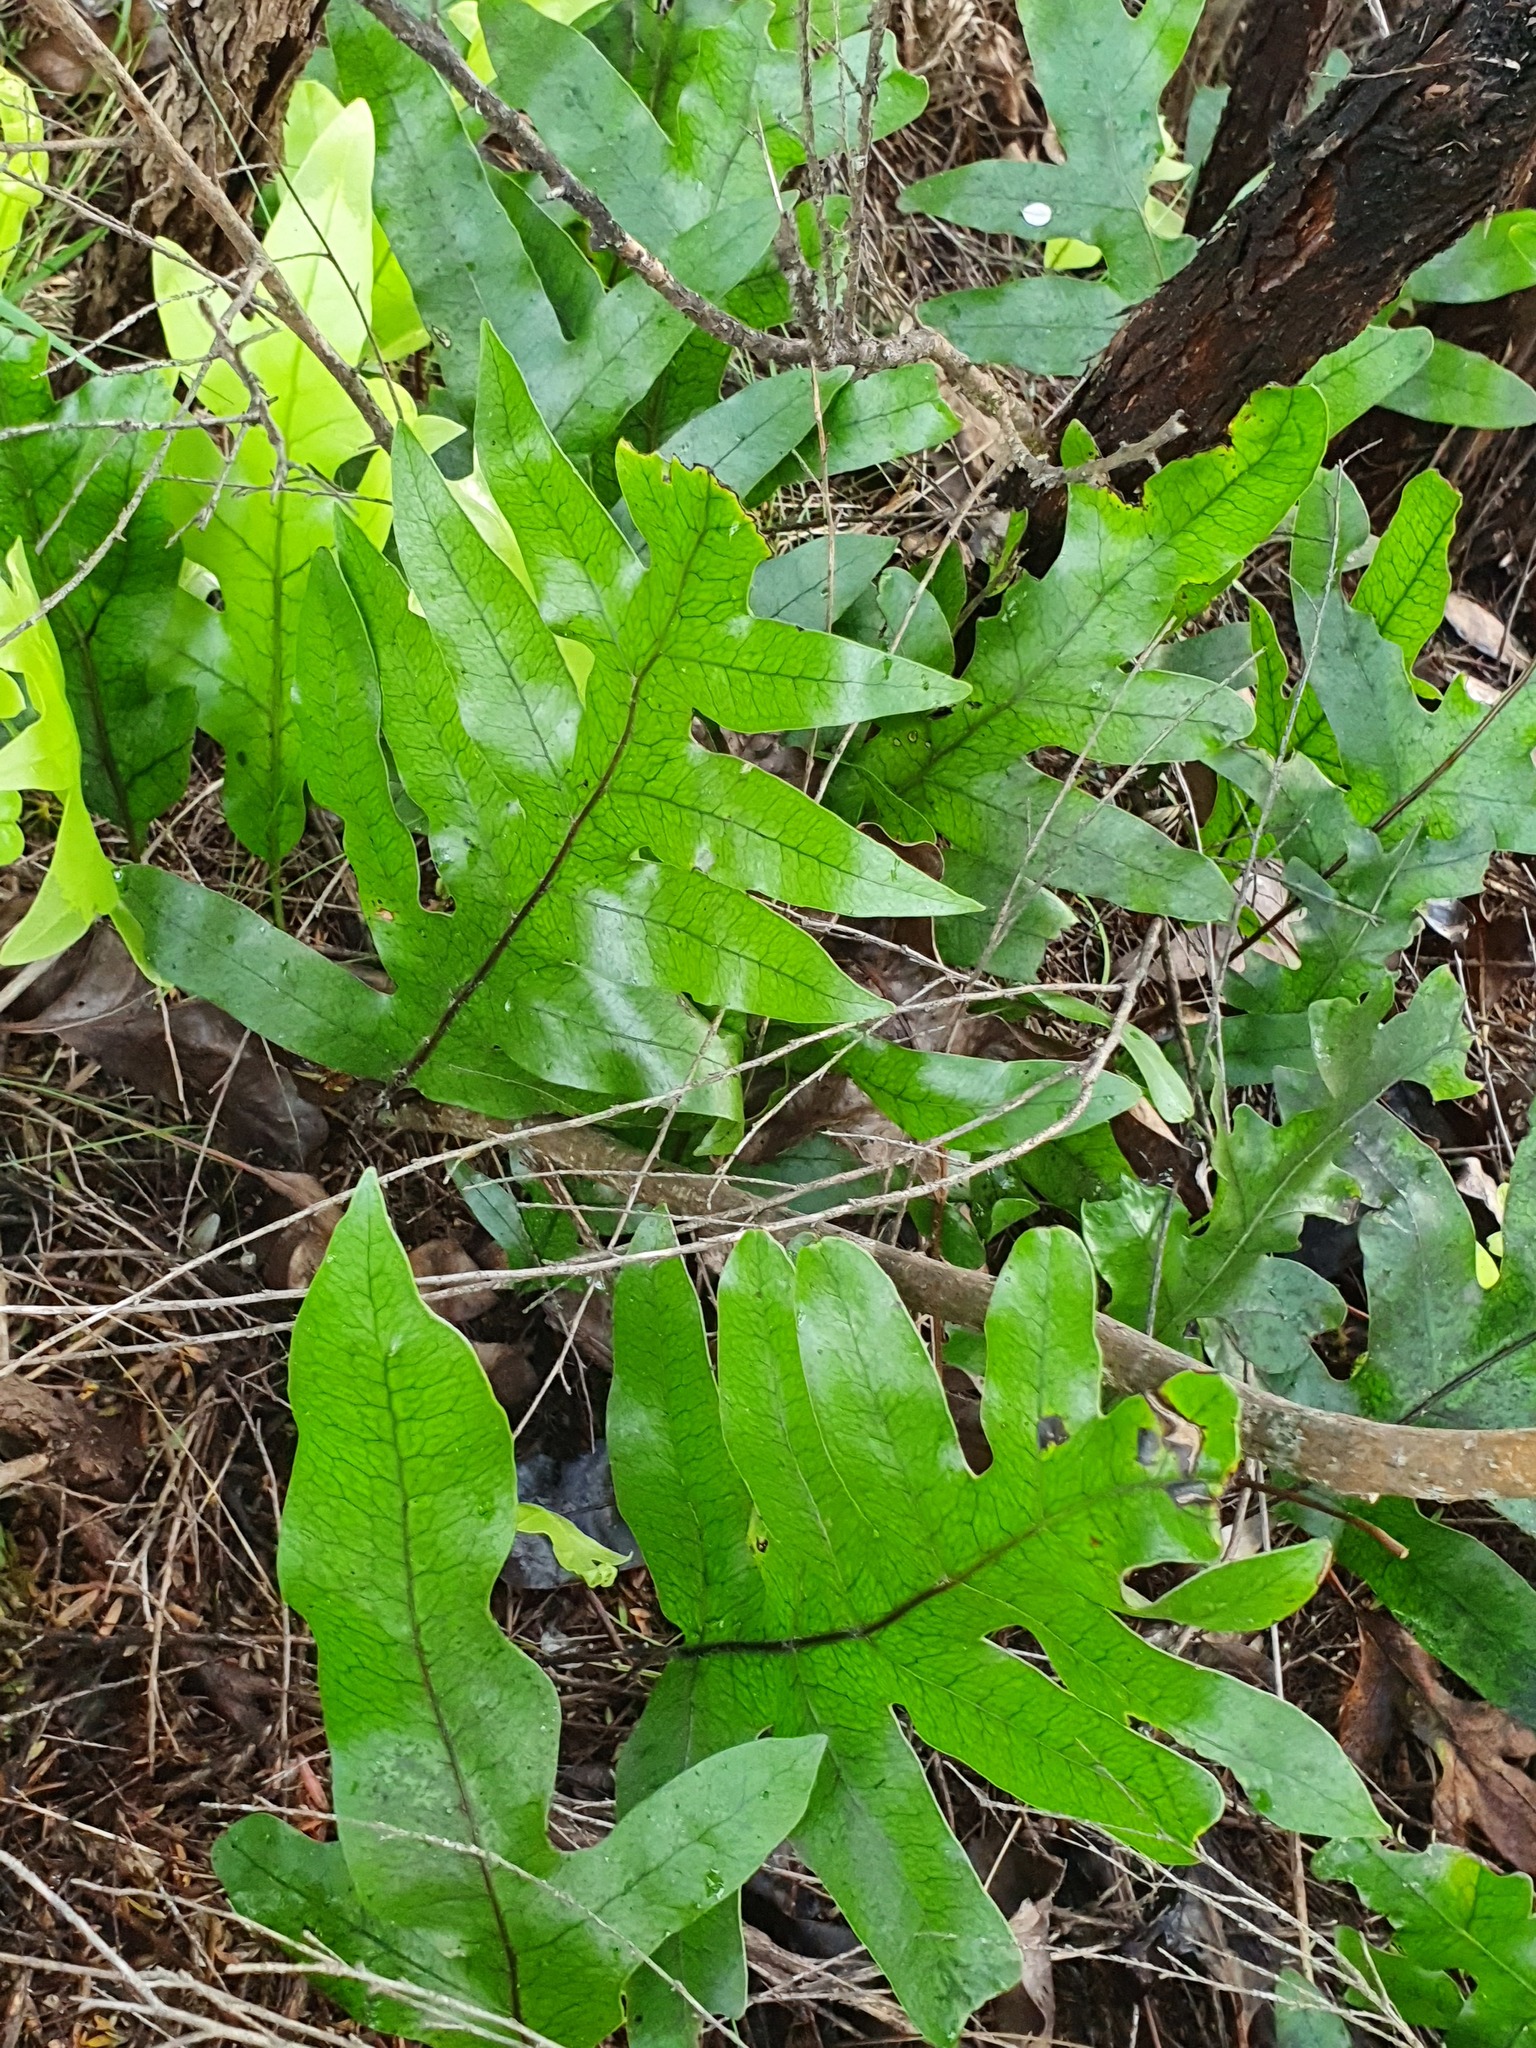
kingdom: Plantae
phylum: Tracheophyta
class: Polypodiopsida
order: Polypodiales
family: Polypodiaceae
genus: Lecanopteris
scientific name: Lecanopteris pustulata
